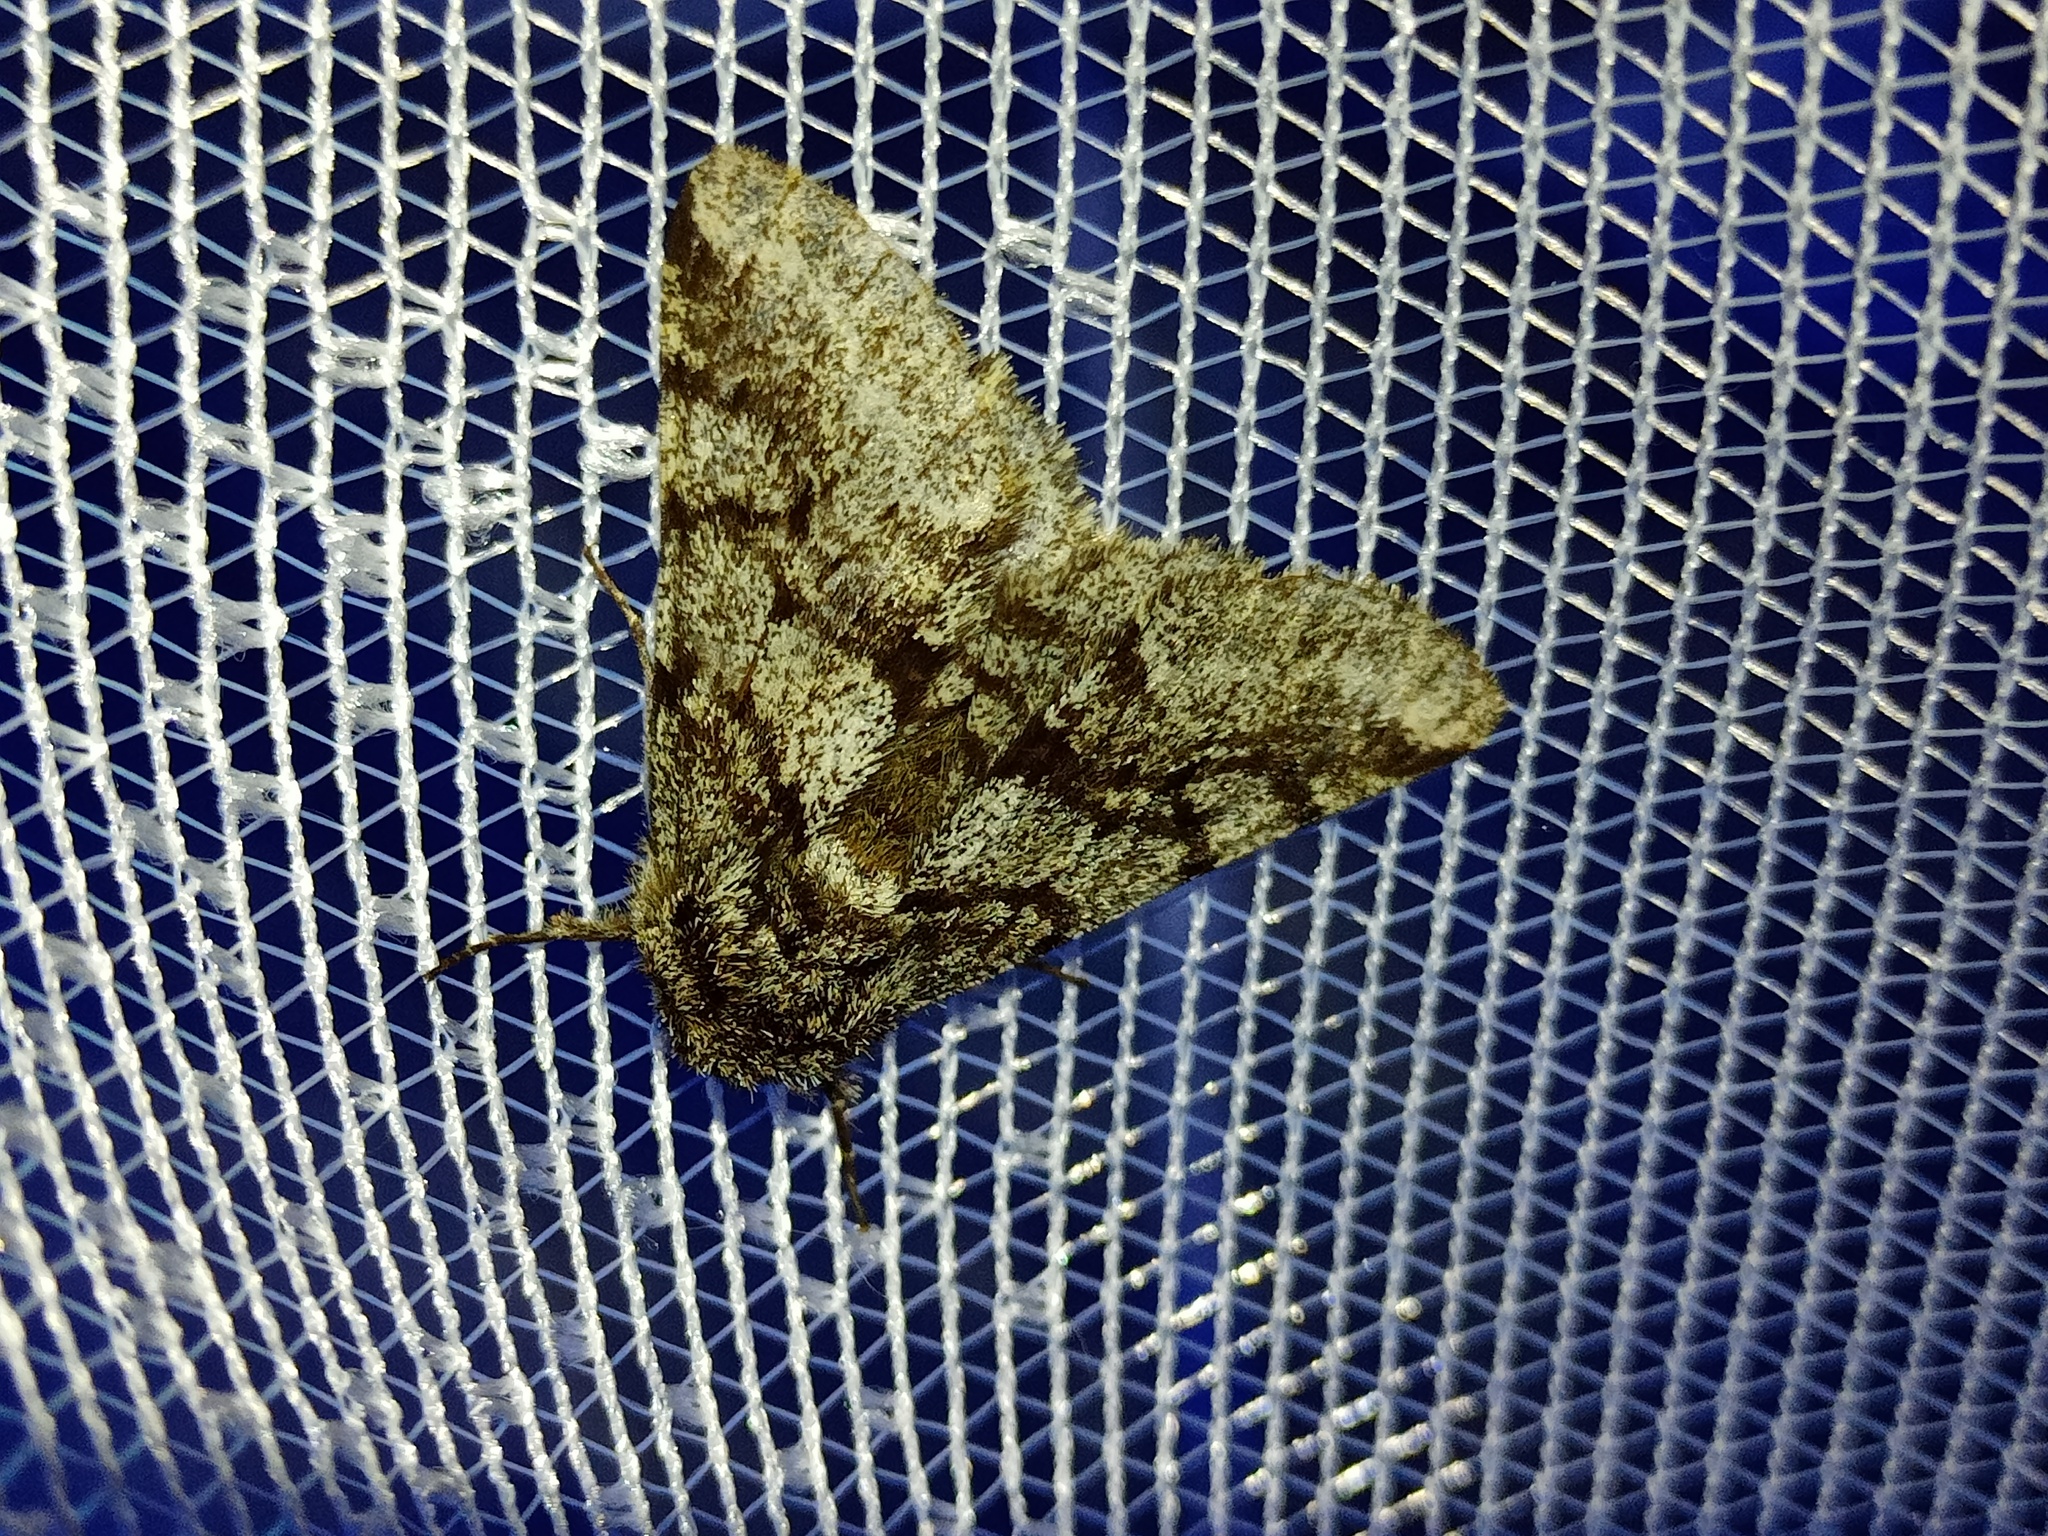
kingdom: Animalia
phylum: Arthropoda
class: Insecta
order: Lepidoptera
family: Geometridae
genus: Lycia
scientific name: Lycia hirtaria
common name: Brindled beauty
